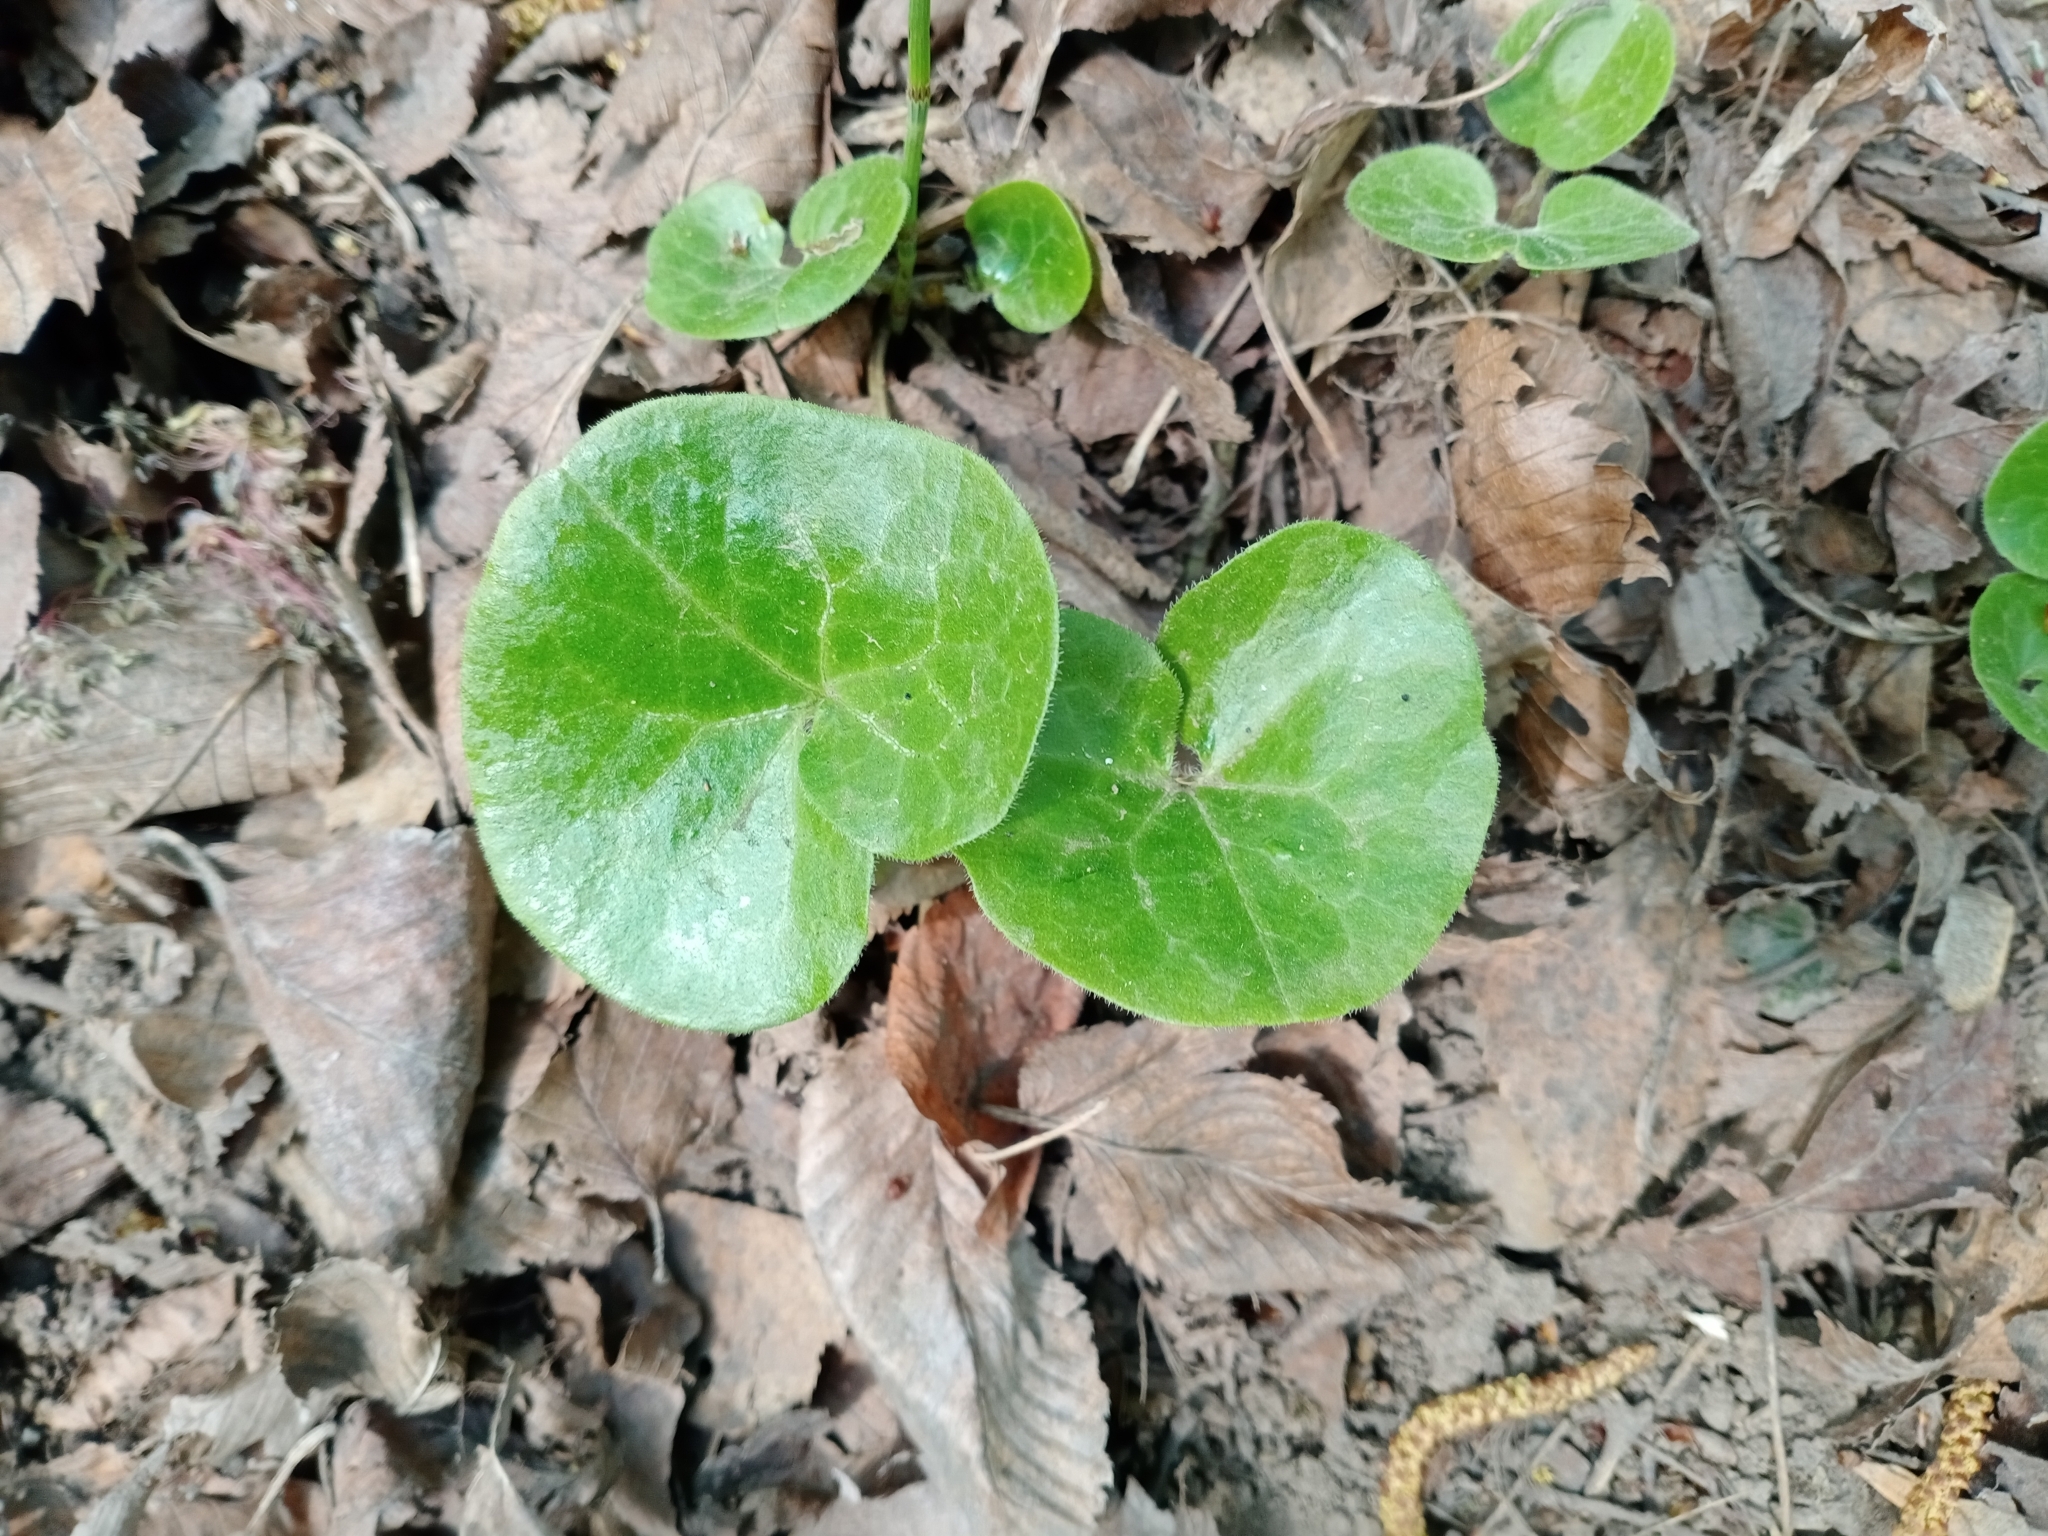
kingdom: Plantae
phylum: Tracheophyta
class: Magnoliopsida
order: Piperales
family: Aristolochiaceae
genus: Asarum
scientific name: Asarum europaeum
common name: Asarabacca
